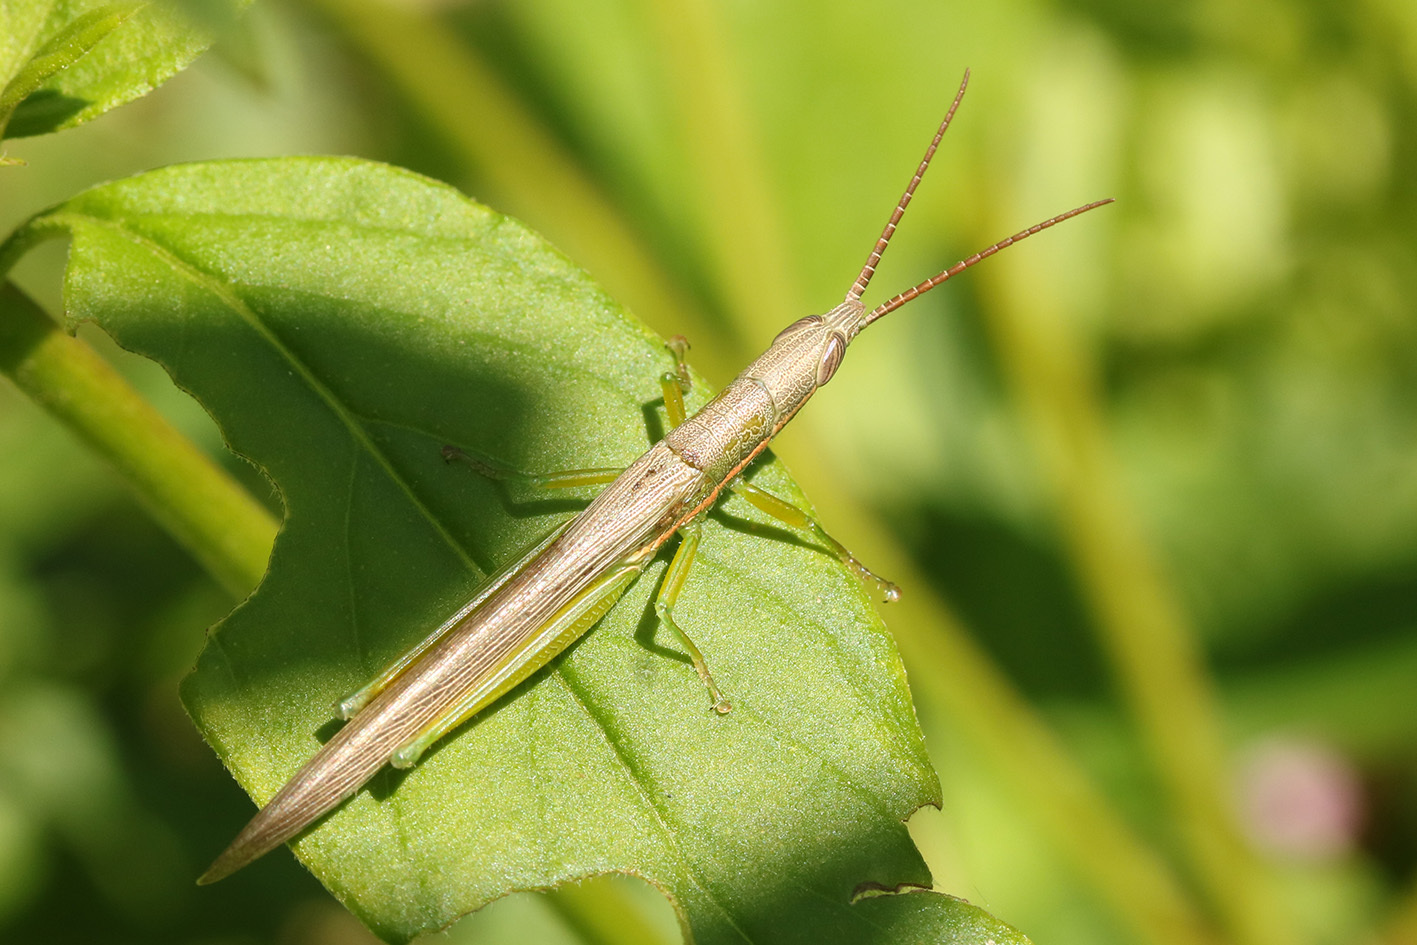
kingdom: Animalia
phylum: Arthropoda
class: Insecta
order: Orthoptera
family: Acrididae
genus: Leptysmina
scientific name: Leptysmina pallida
